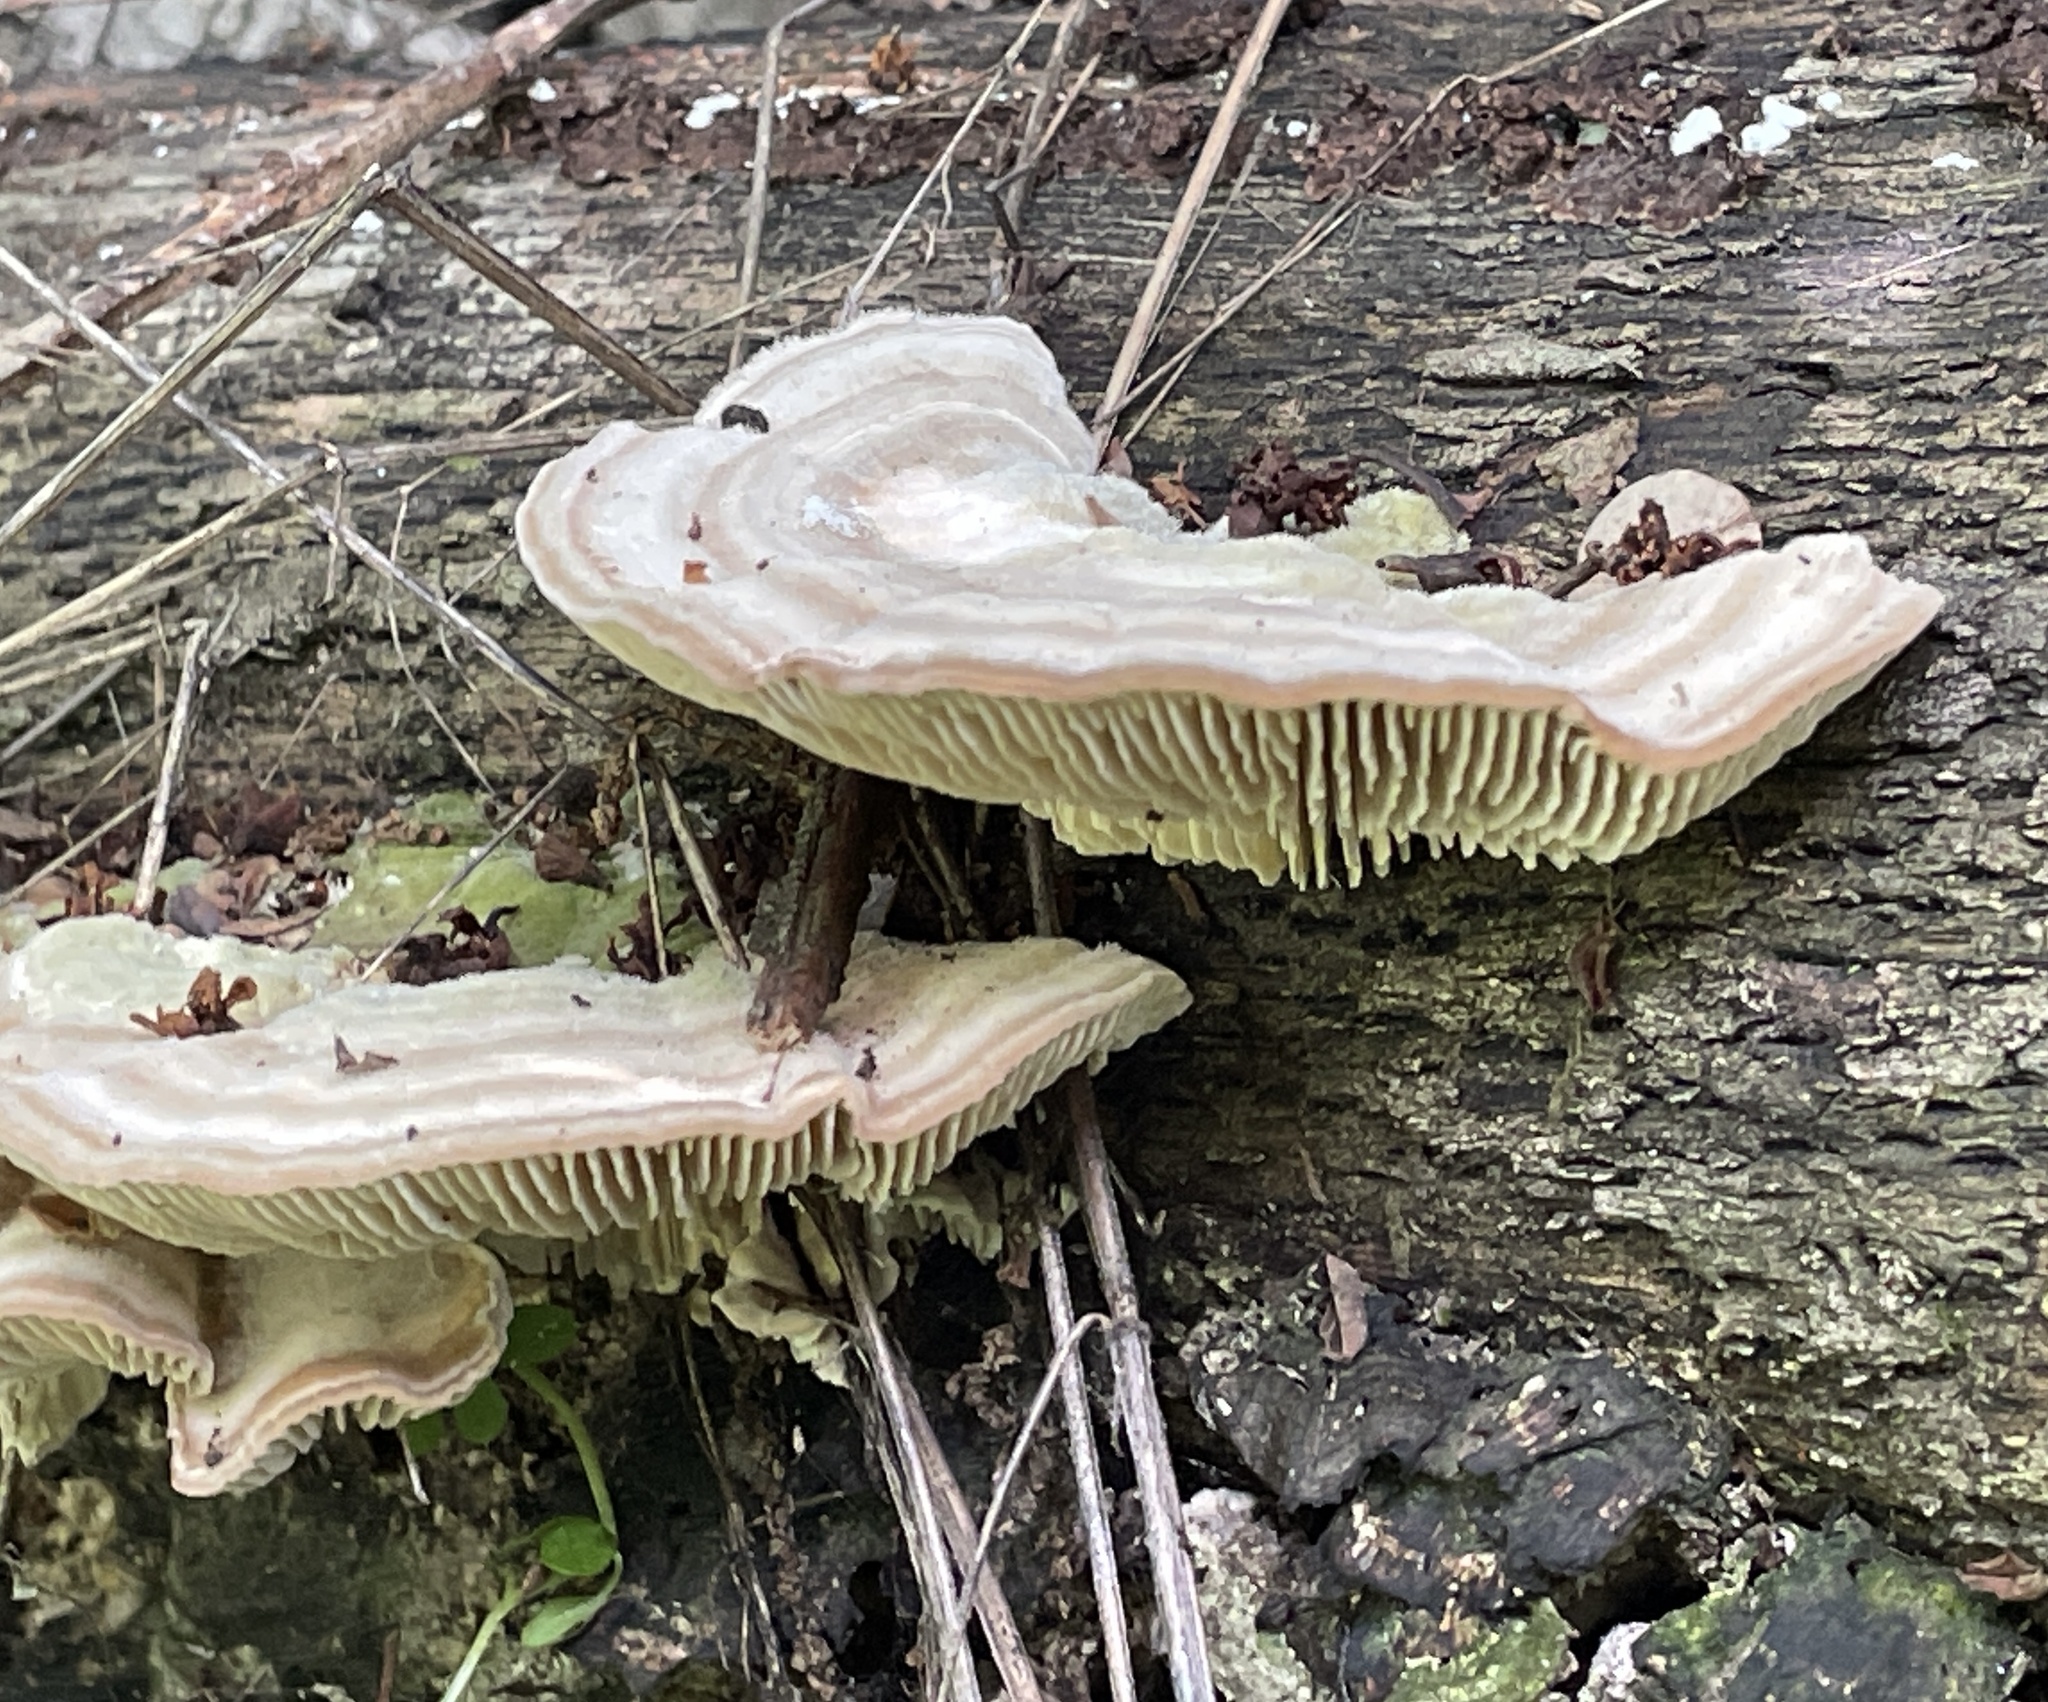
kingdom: Fungi
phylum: Basidiomycota
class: Agaricomycetes
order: Polyporales
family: Polyporaceae
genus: Lenzites
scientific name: Lenzites betulinus
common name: Birch mazegill
